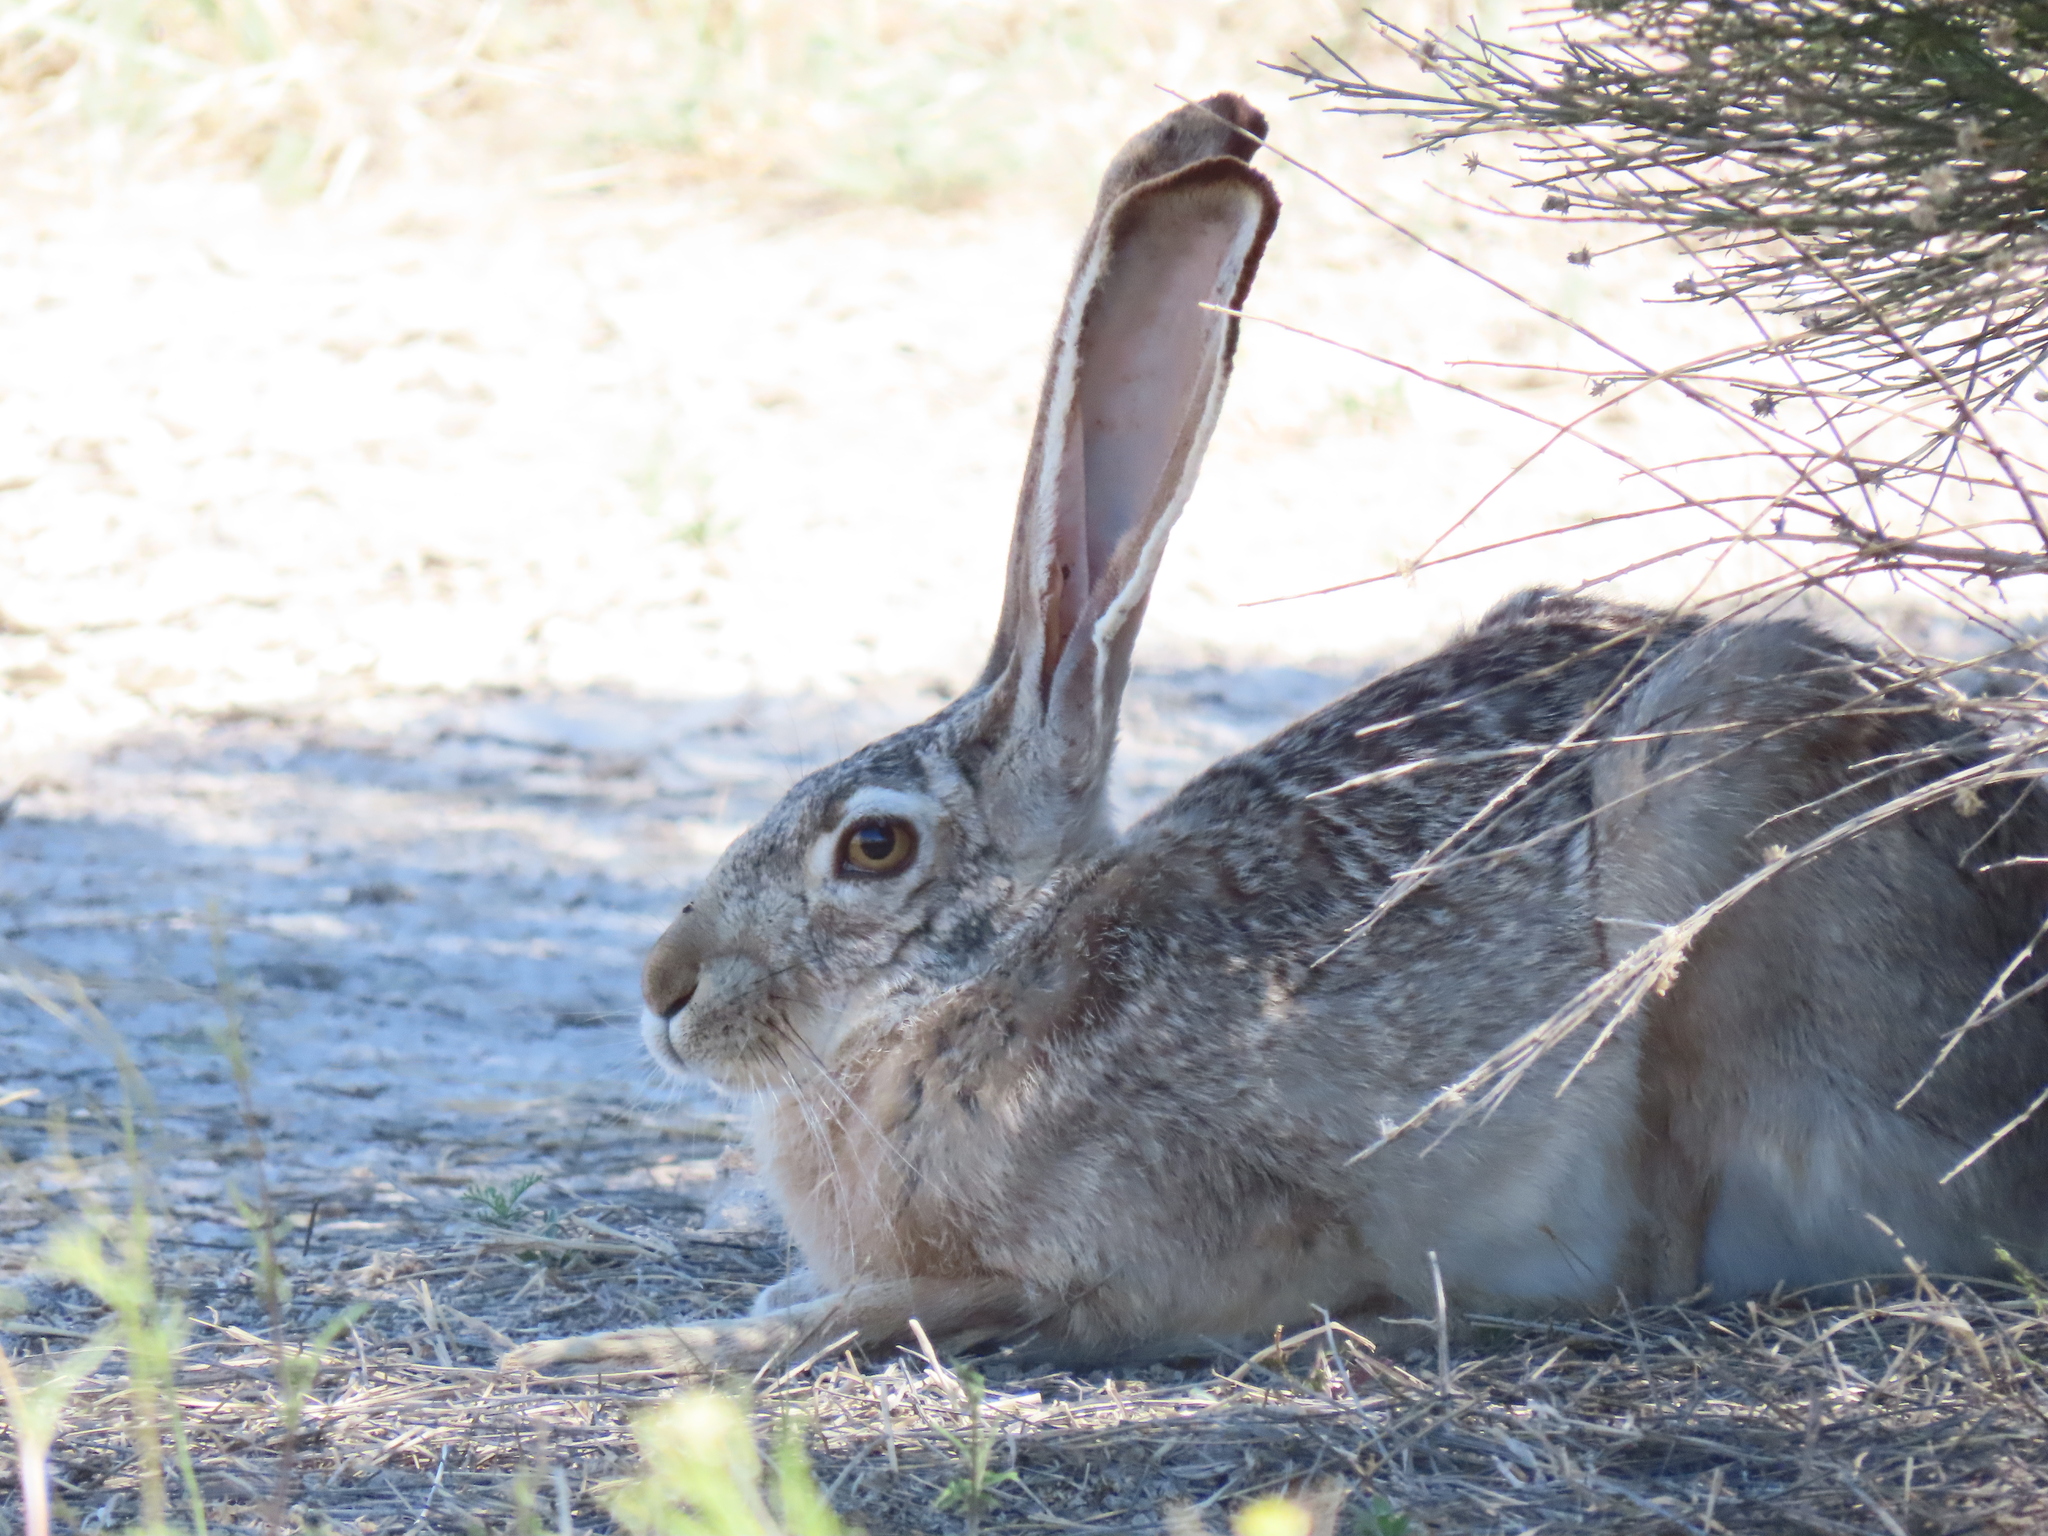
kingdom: Animalia
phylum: Chordata
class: Mammalia
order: Lagomorpha
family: Leporidae
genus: Lepus
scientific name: Lepus californicus
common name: Black-tailed jackrabbit
